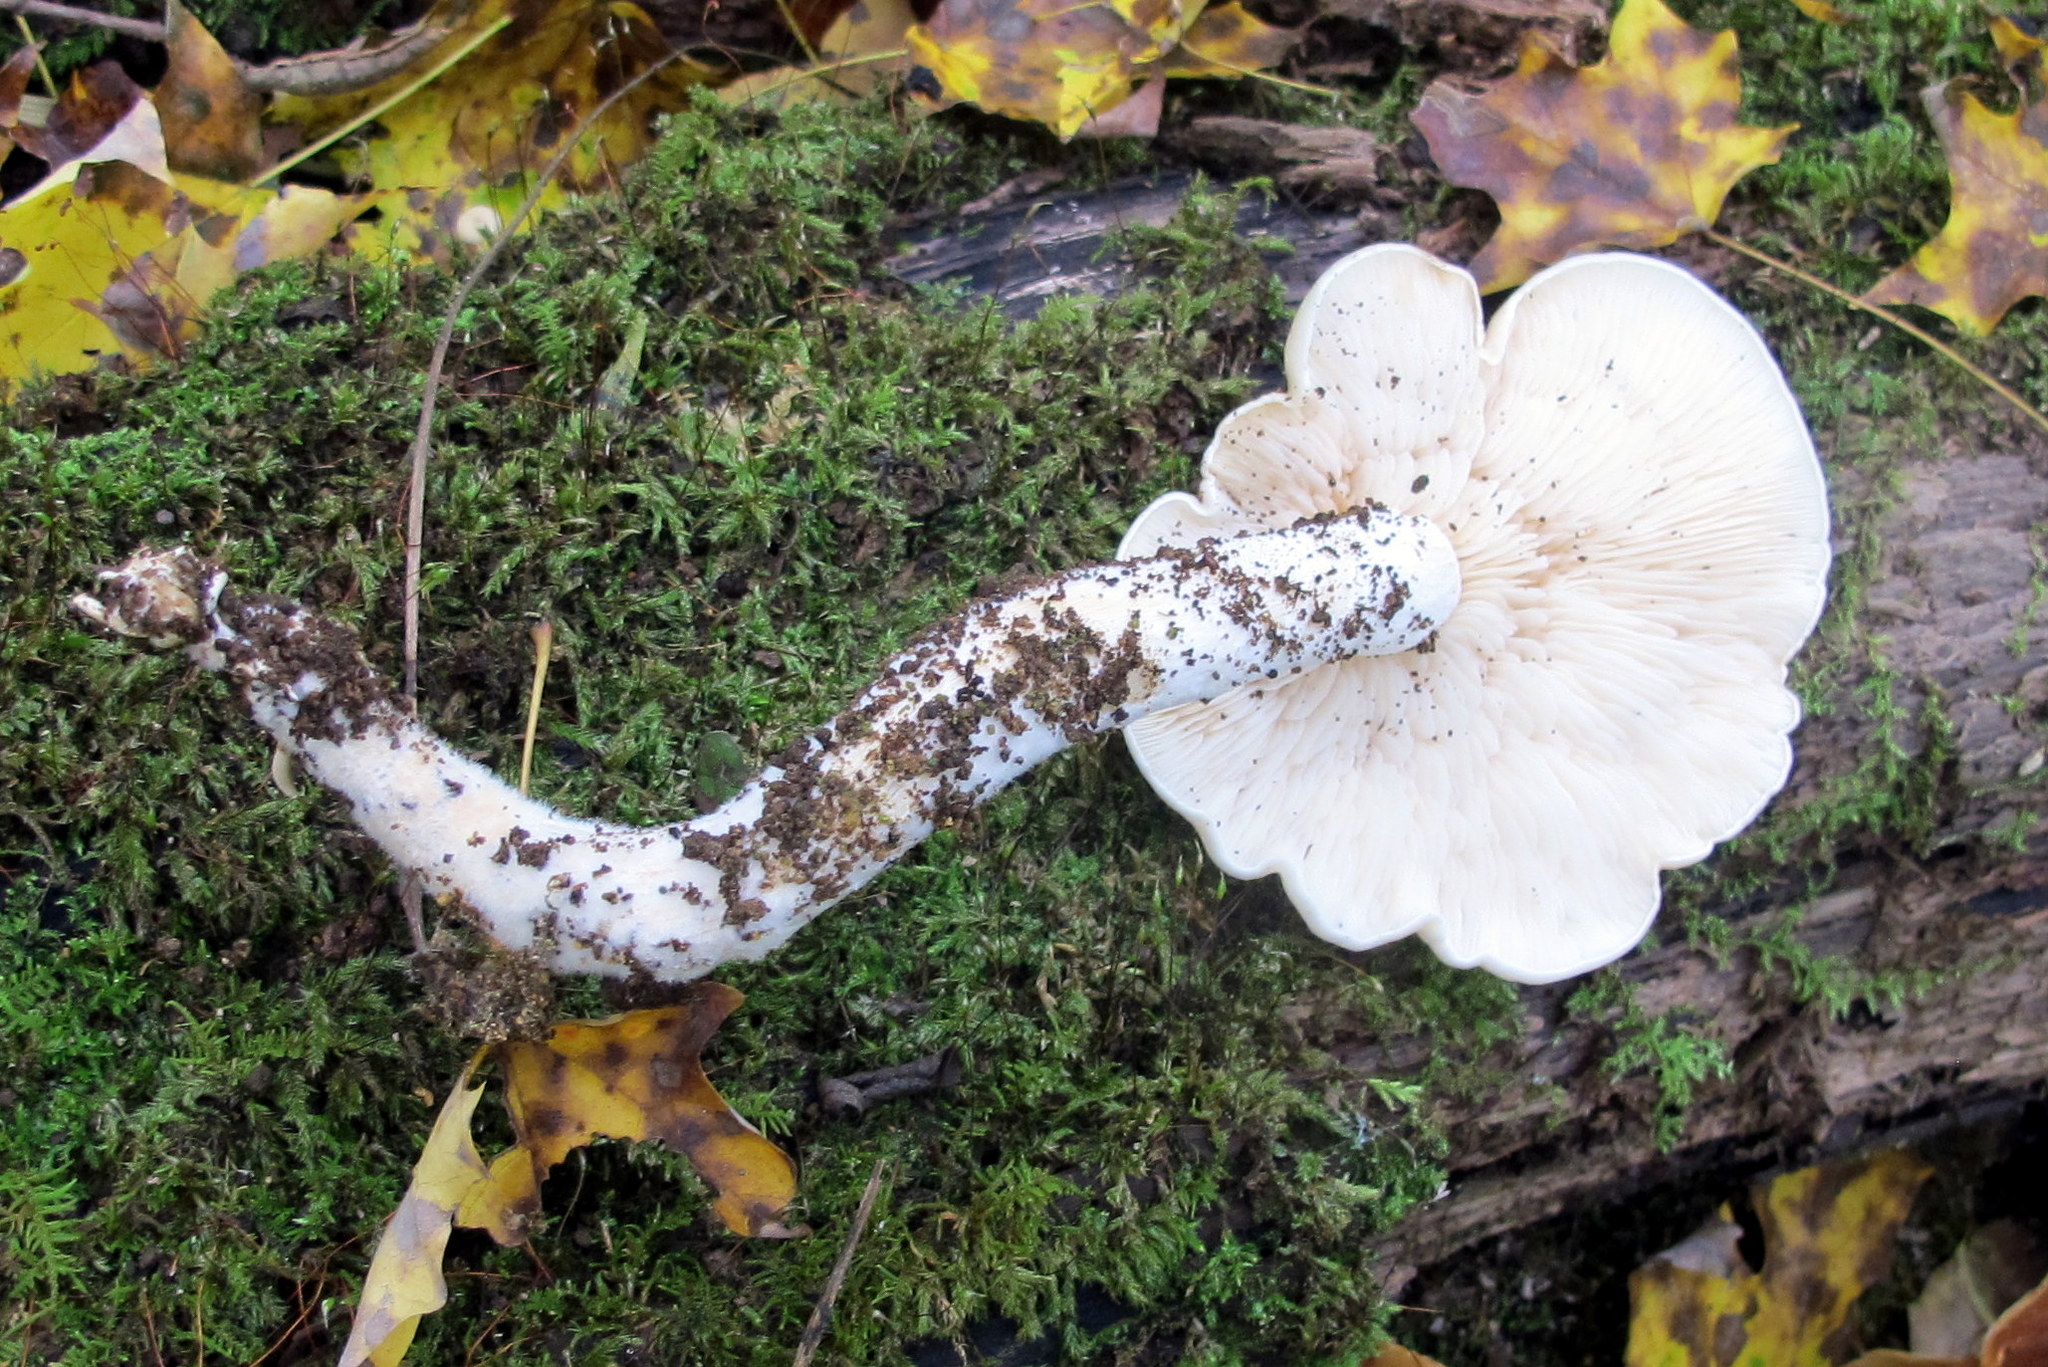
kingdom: Fungi
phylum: Basidiomycota
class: Agaricomycetes
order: Agaricales
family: Lyophyllaceae
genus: Hypsizygus
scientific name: Hypsizygus marmoreus
